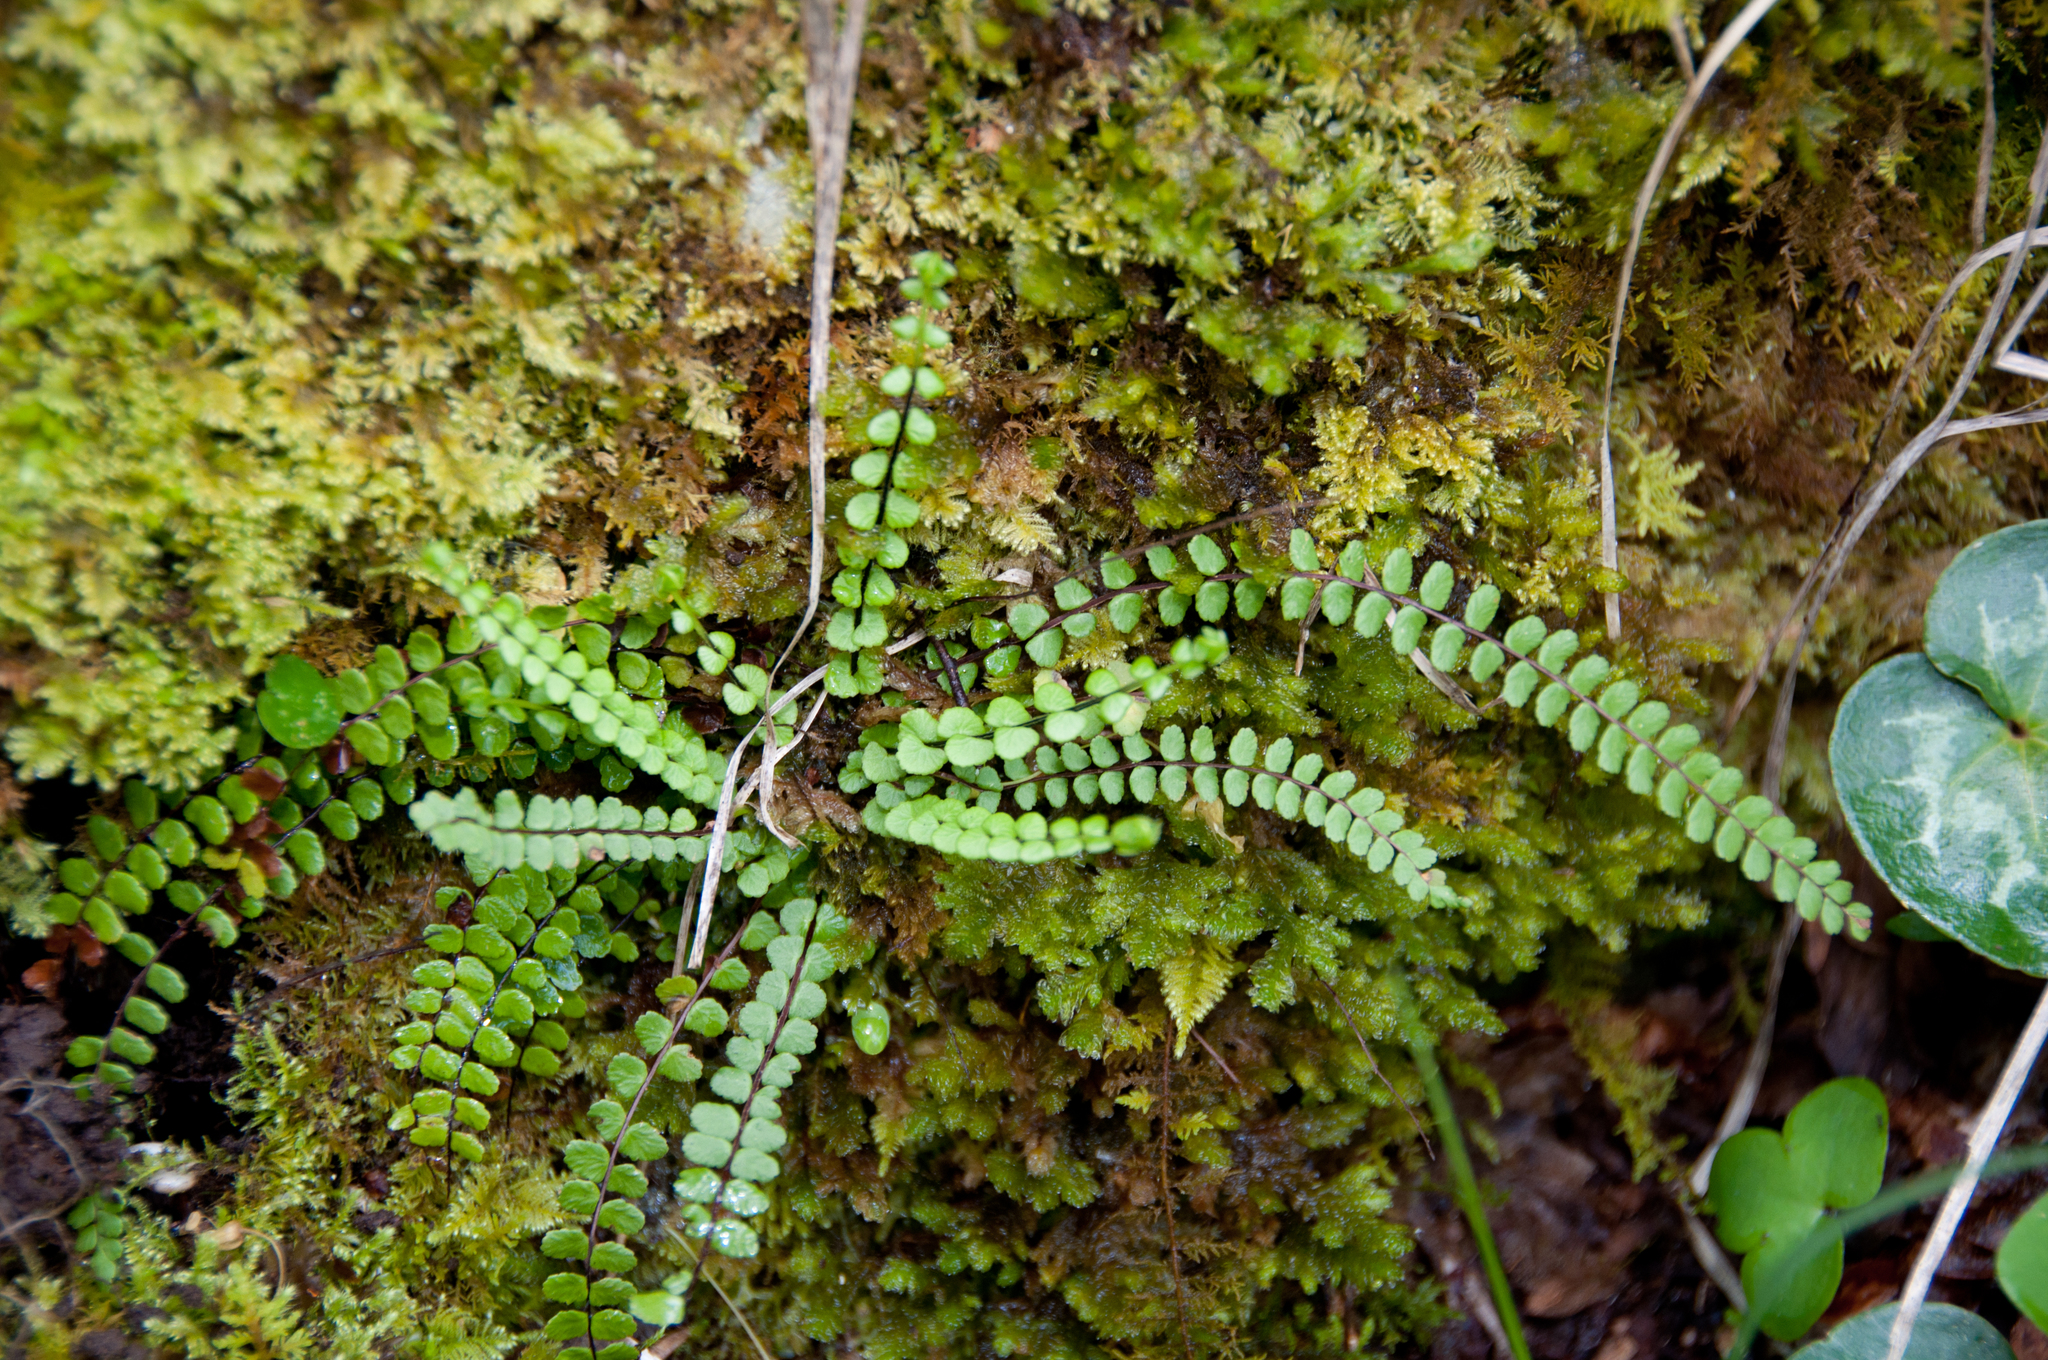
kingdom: Plantae
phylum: Tracheophyta
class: Polypodiopsida
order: Polypodiales
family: Aspleniaceae
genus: Asplenium
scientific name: Asplenium trichomanes
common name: Maidenhair spleenwort
